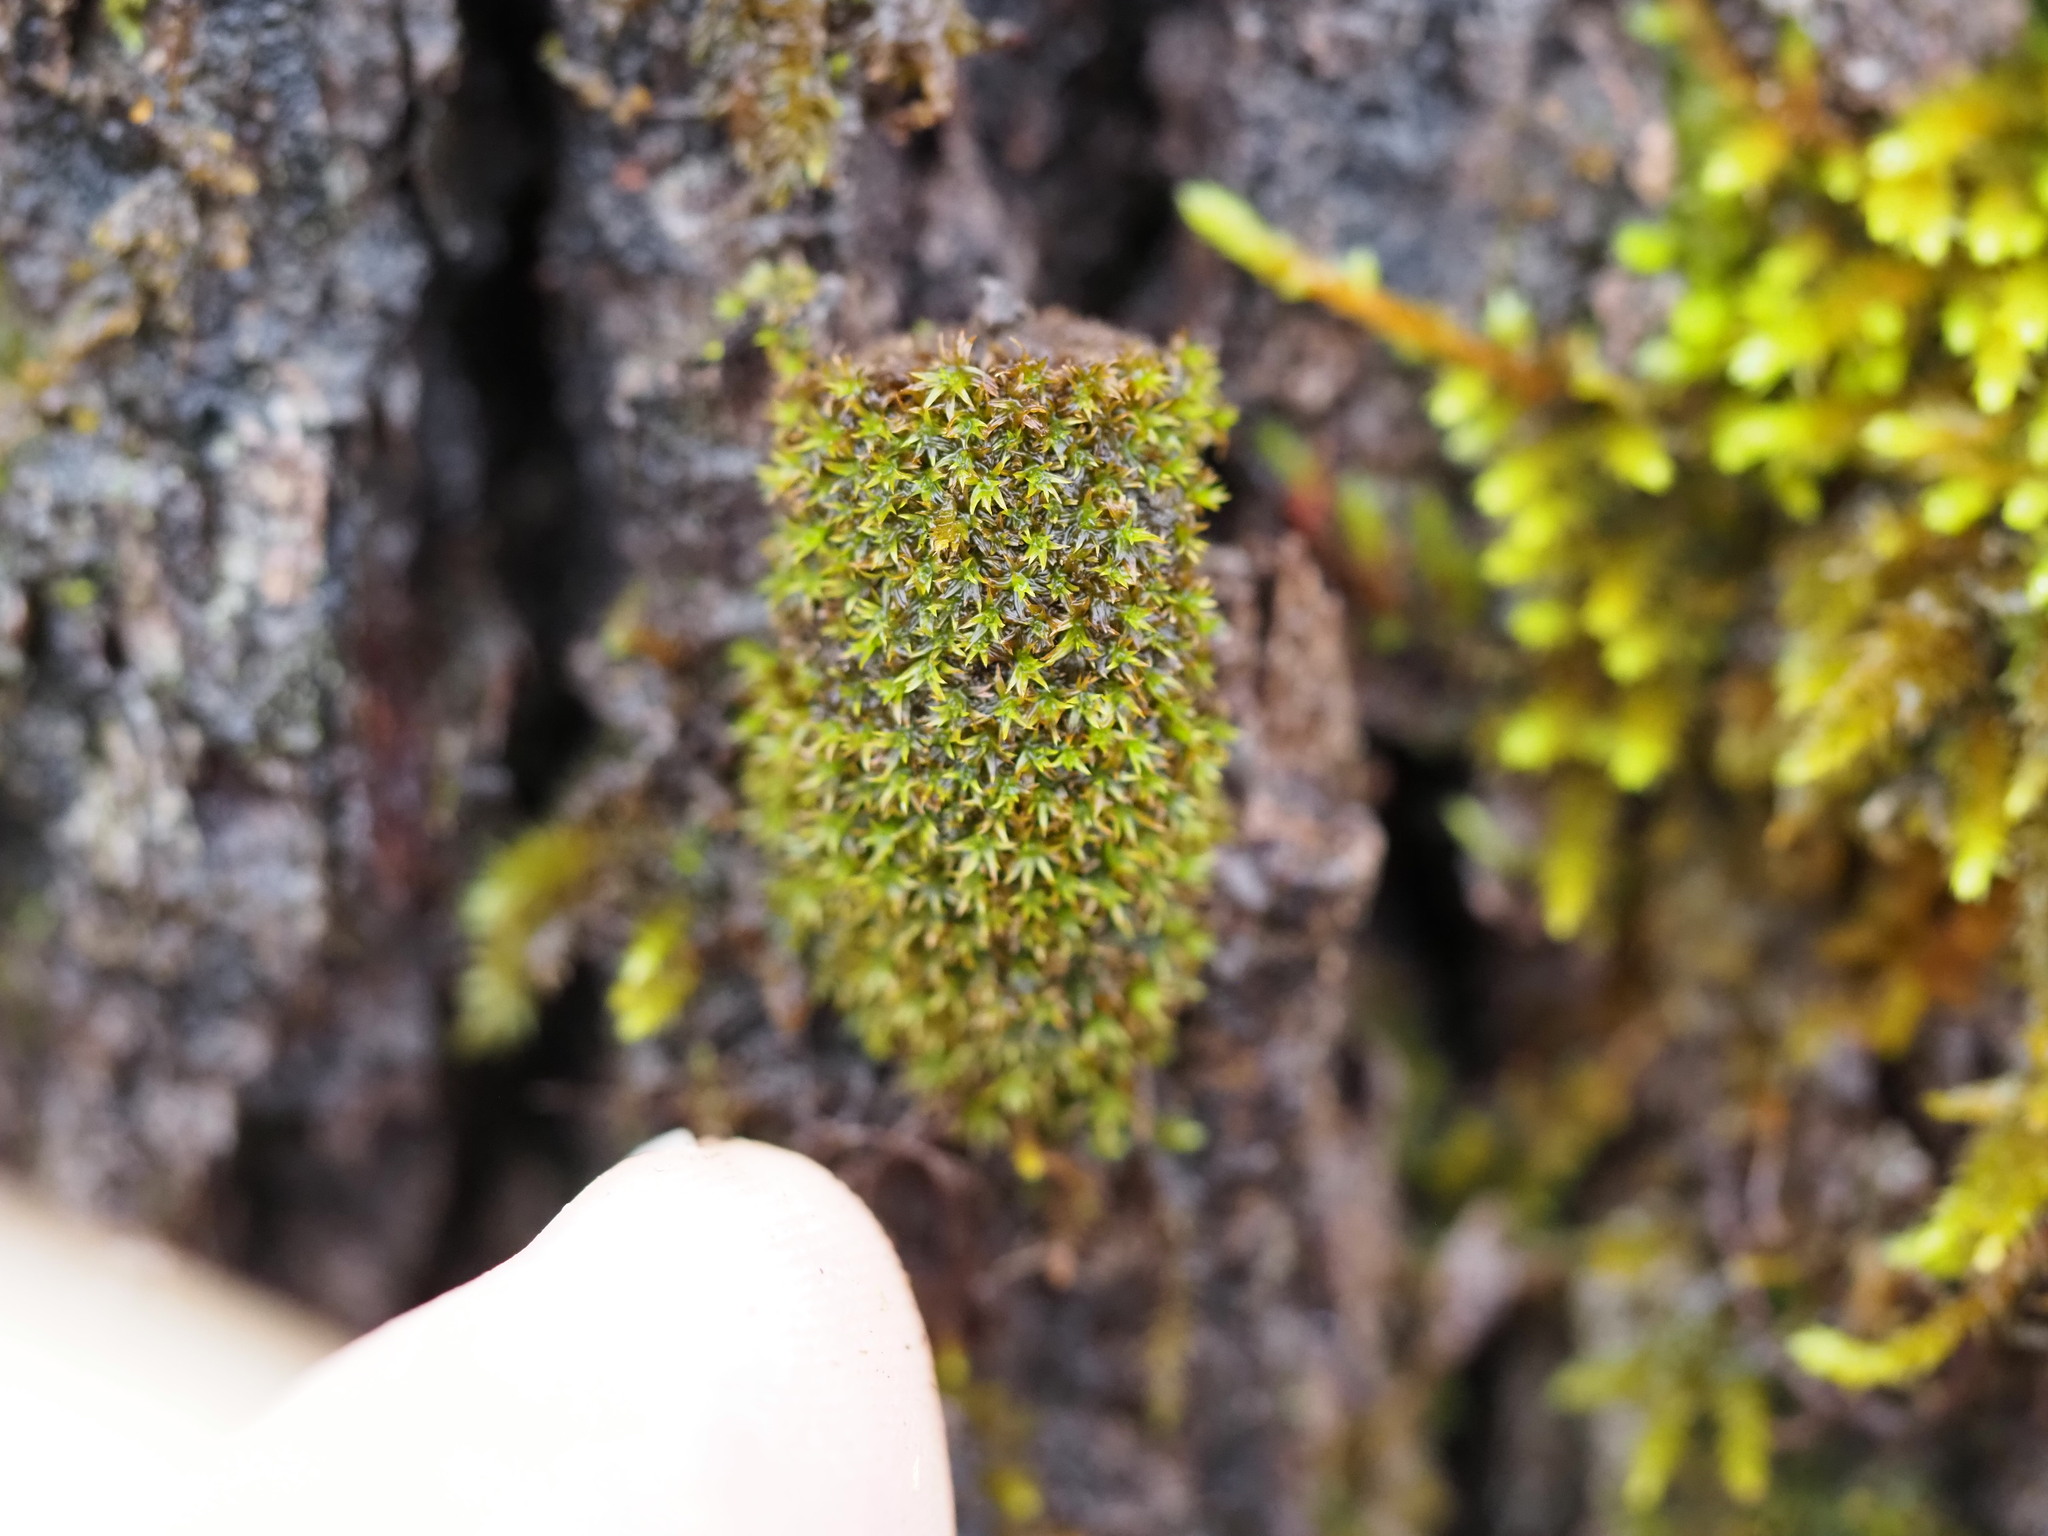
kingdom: Plantae
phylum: Bryophyta
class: Bryopsida
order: Orthotrichales
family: Orthotrichaceae
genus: Zygodon
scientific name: Zygodon rupestris
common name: Park yoke moss
